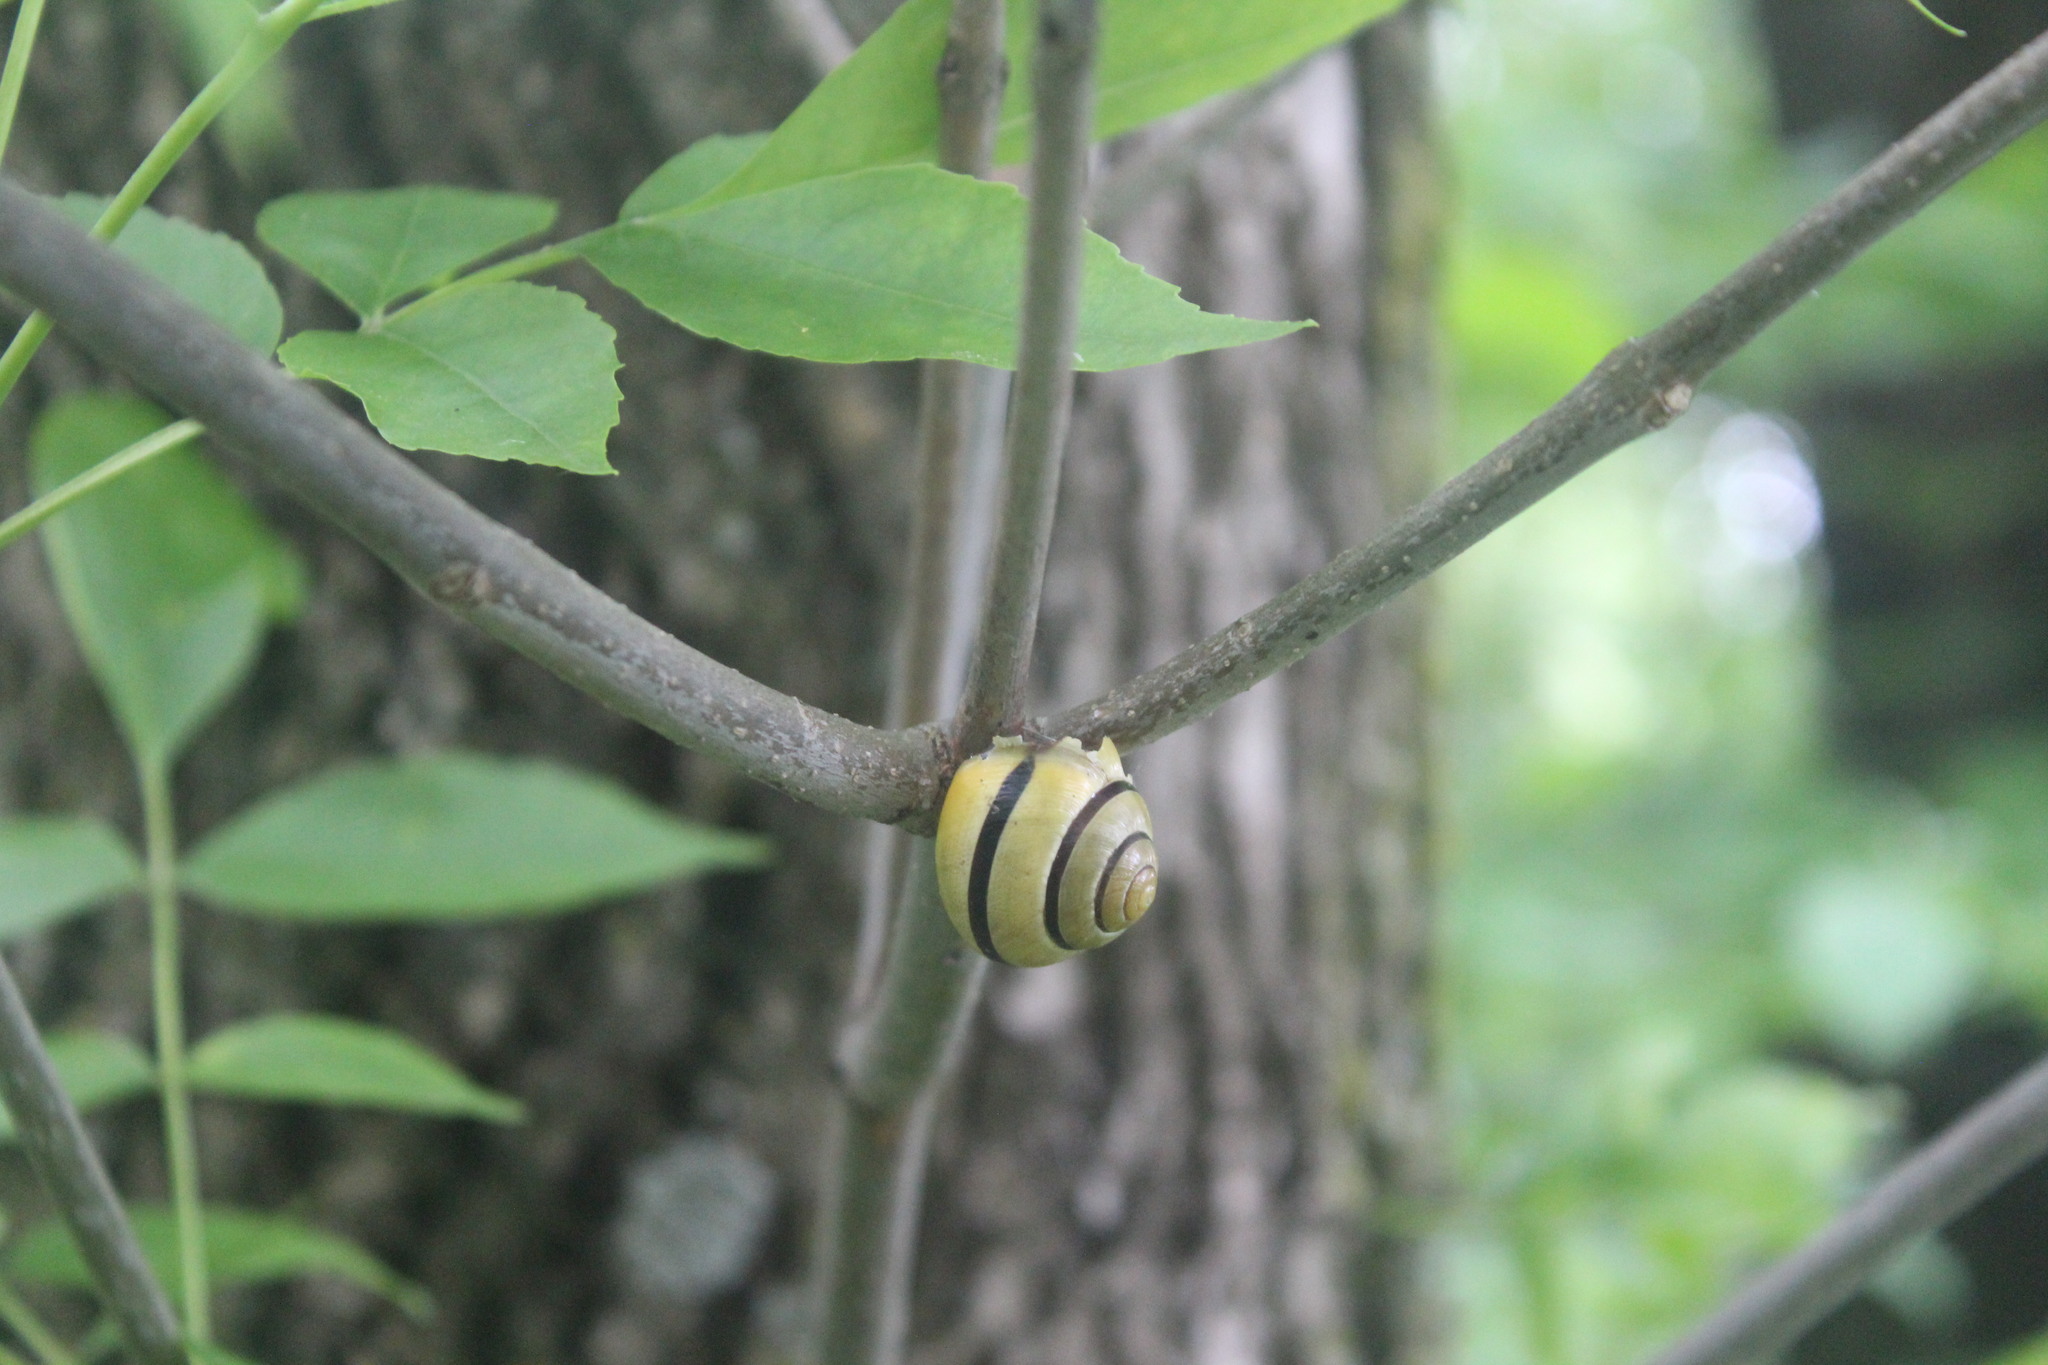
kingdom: Animalia
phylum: Mollusca
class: Gastropoda
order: Stylommatophora
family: Helicidae
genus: Cepaea
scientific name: Cepaea nemoralis
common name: Grovesnail
